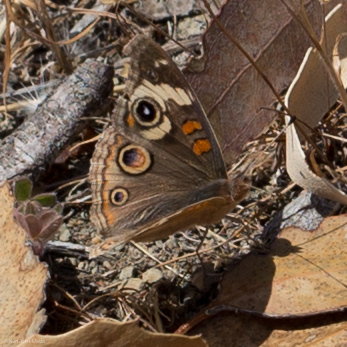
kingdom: Animalia
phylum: Arthropoda
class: Insecta
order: Lepidoptera
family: Nymphalidae
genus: Junonia
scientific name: Junonia grisea
